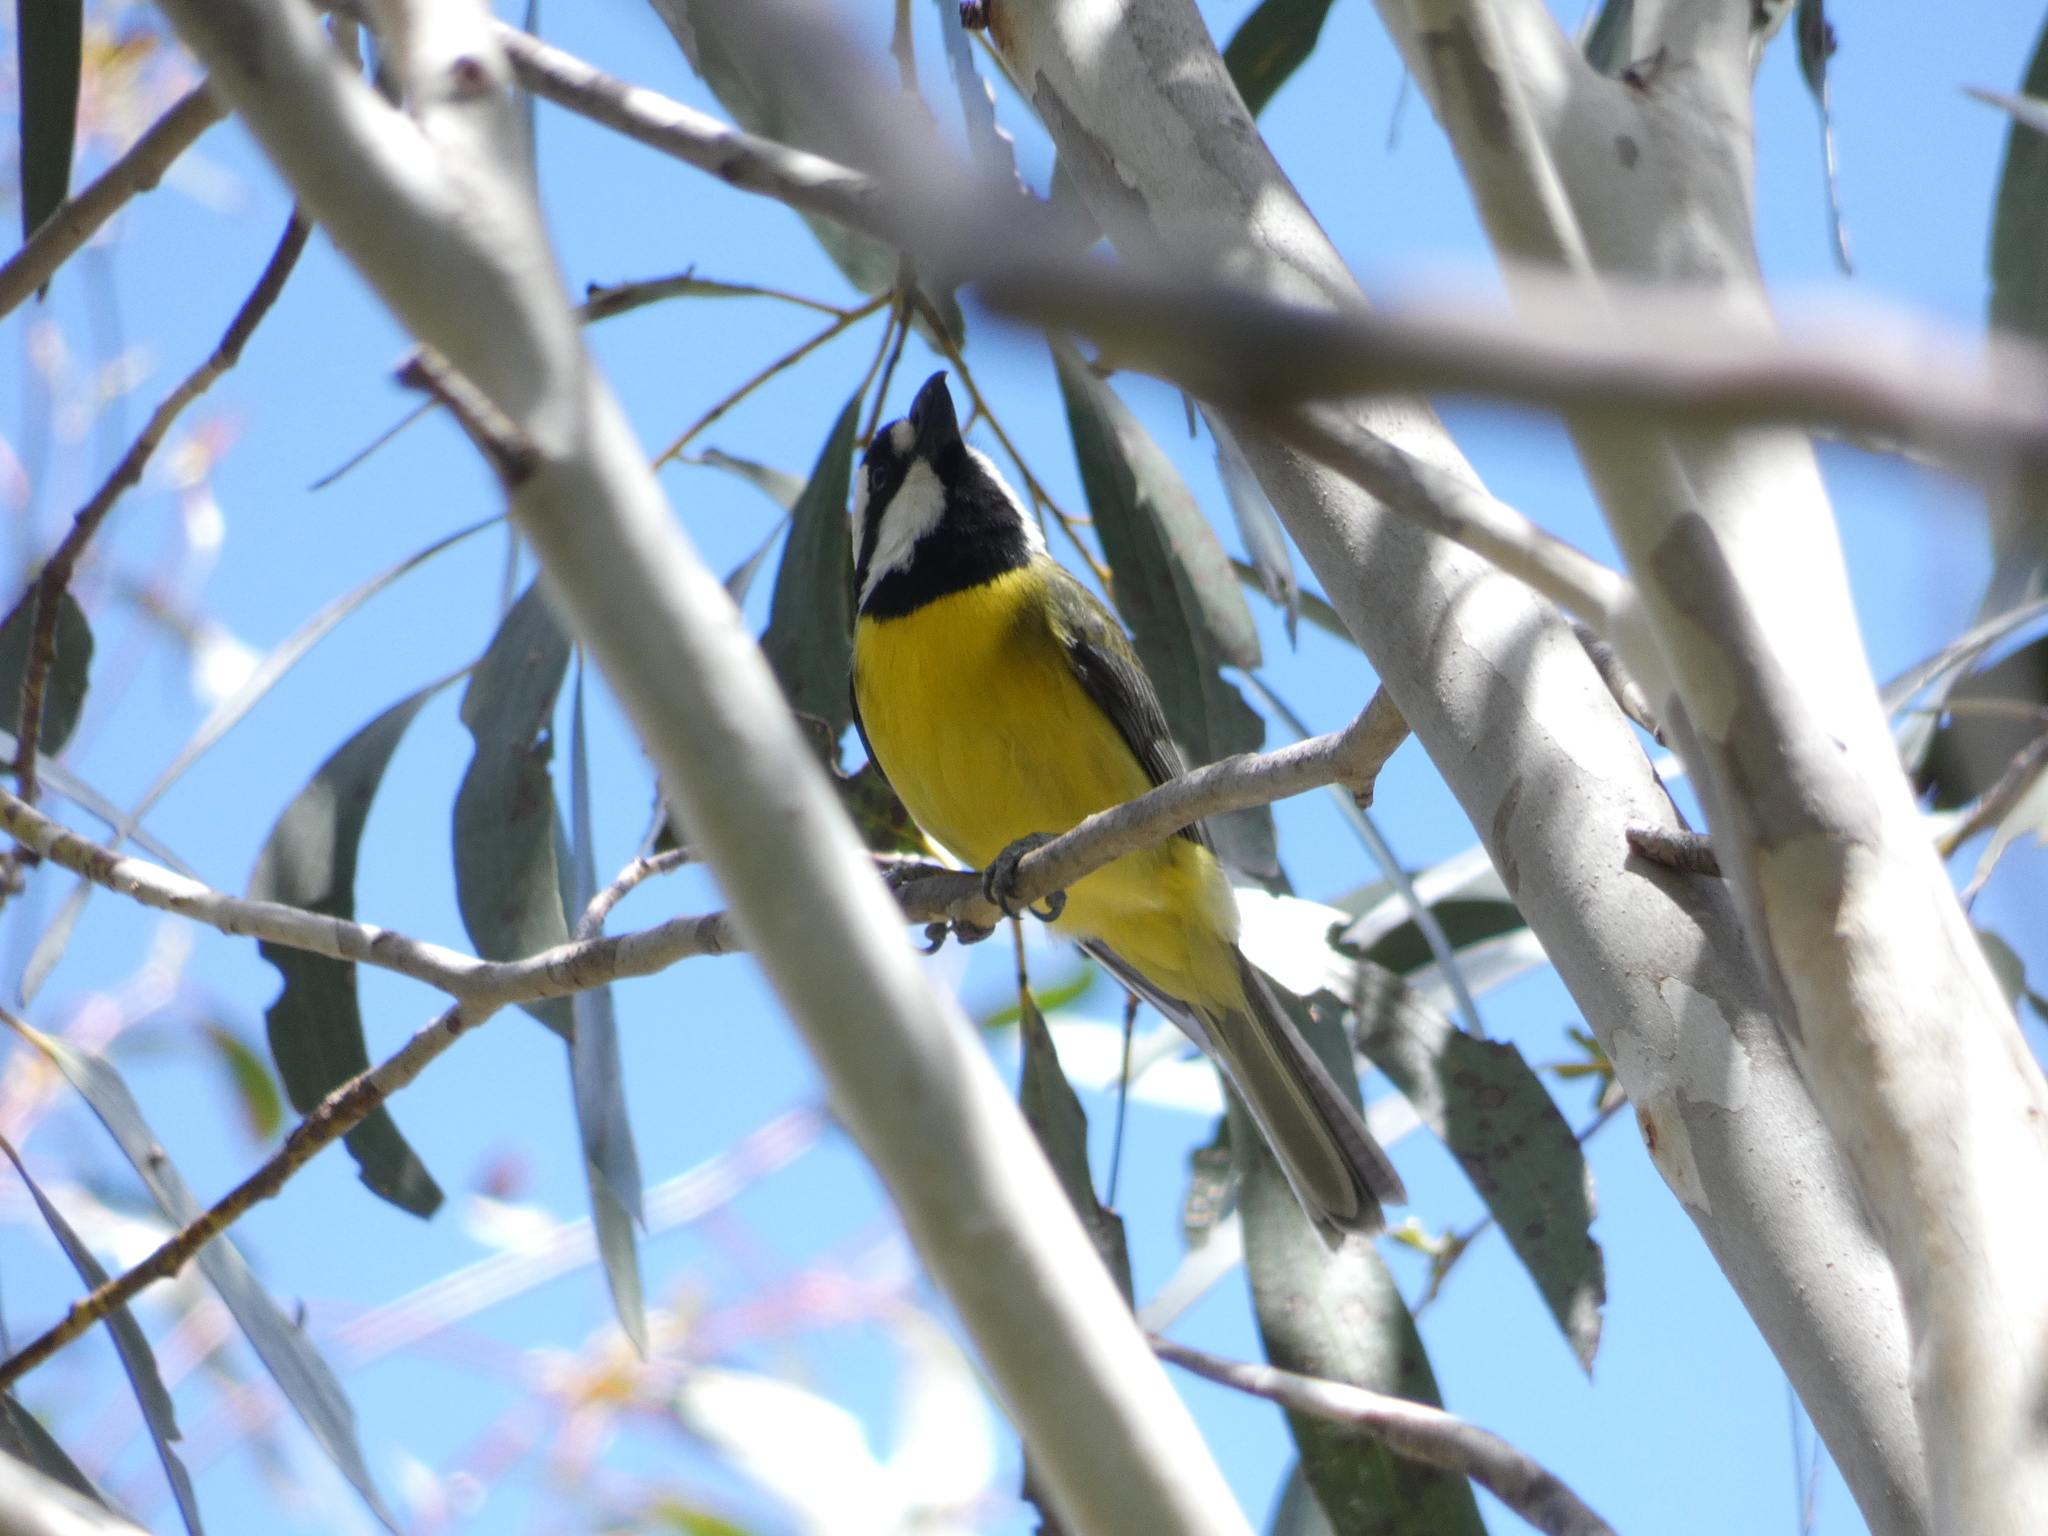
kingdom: Animalia
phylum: Chordata
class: Aves
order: Passeriformes
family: Pachycephalidae
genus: Falcunculus
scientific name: Falcunculus frontatus
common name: Crested shriketit
